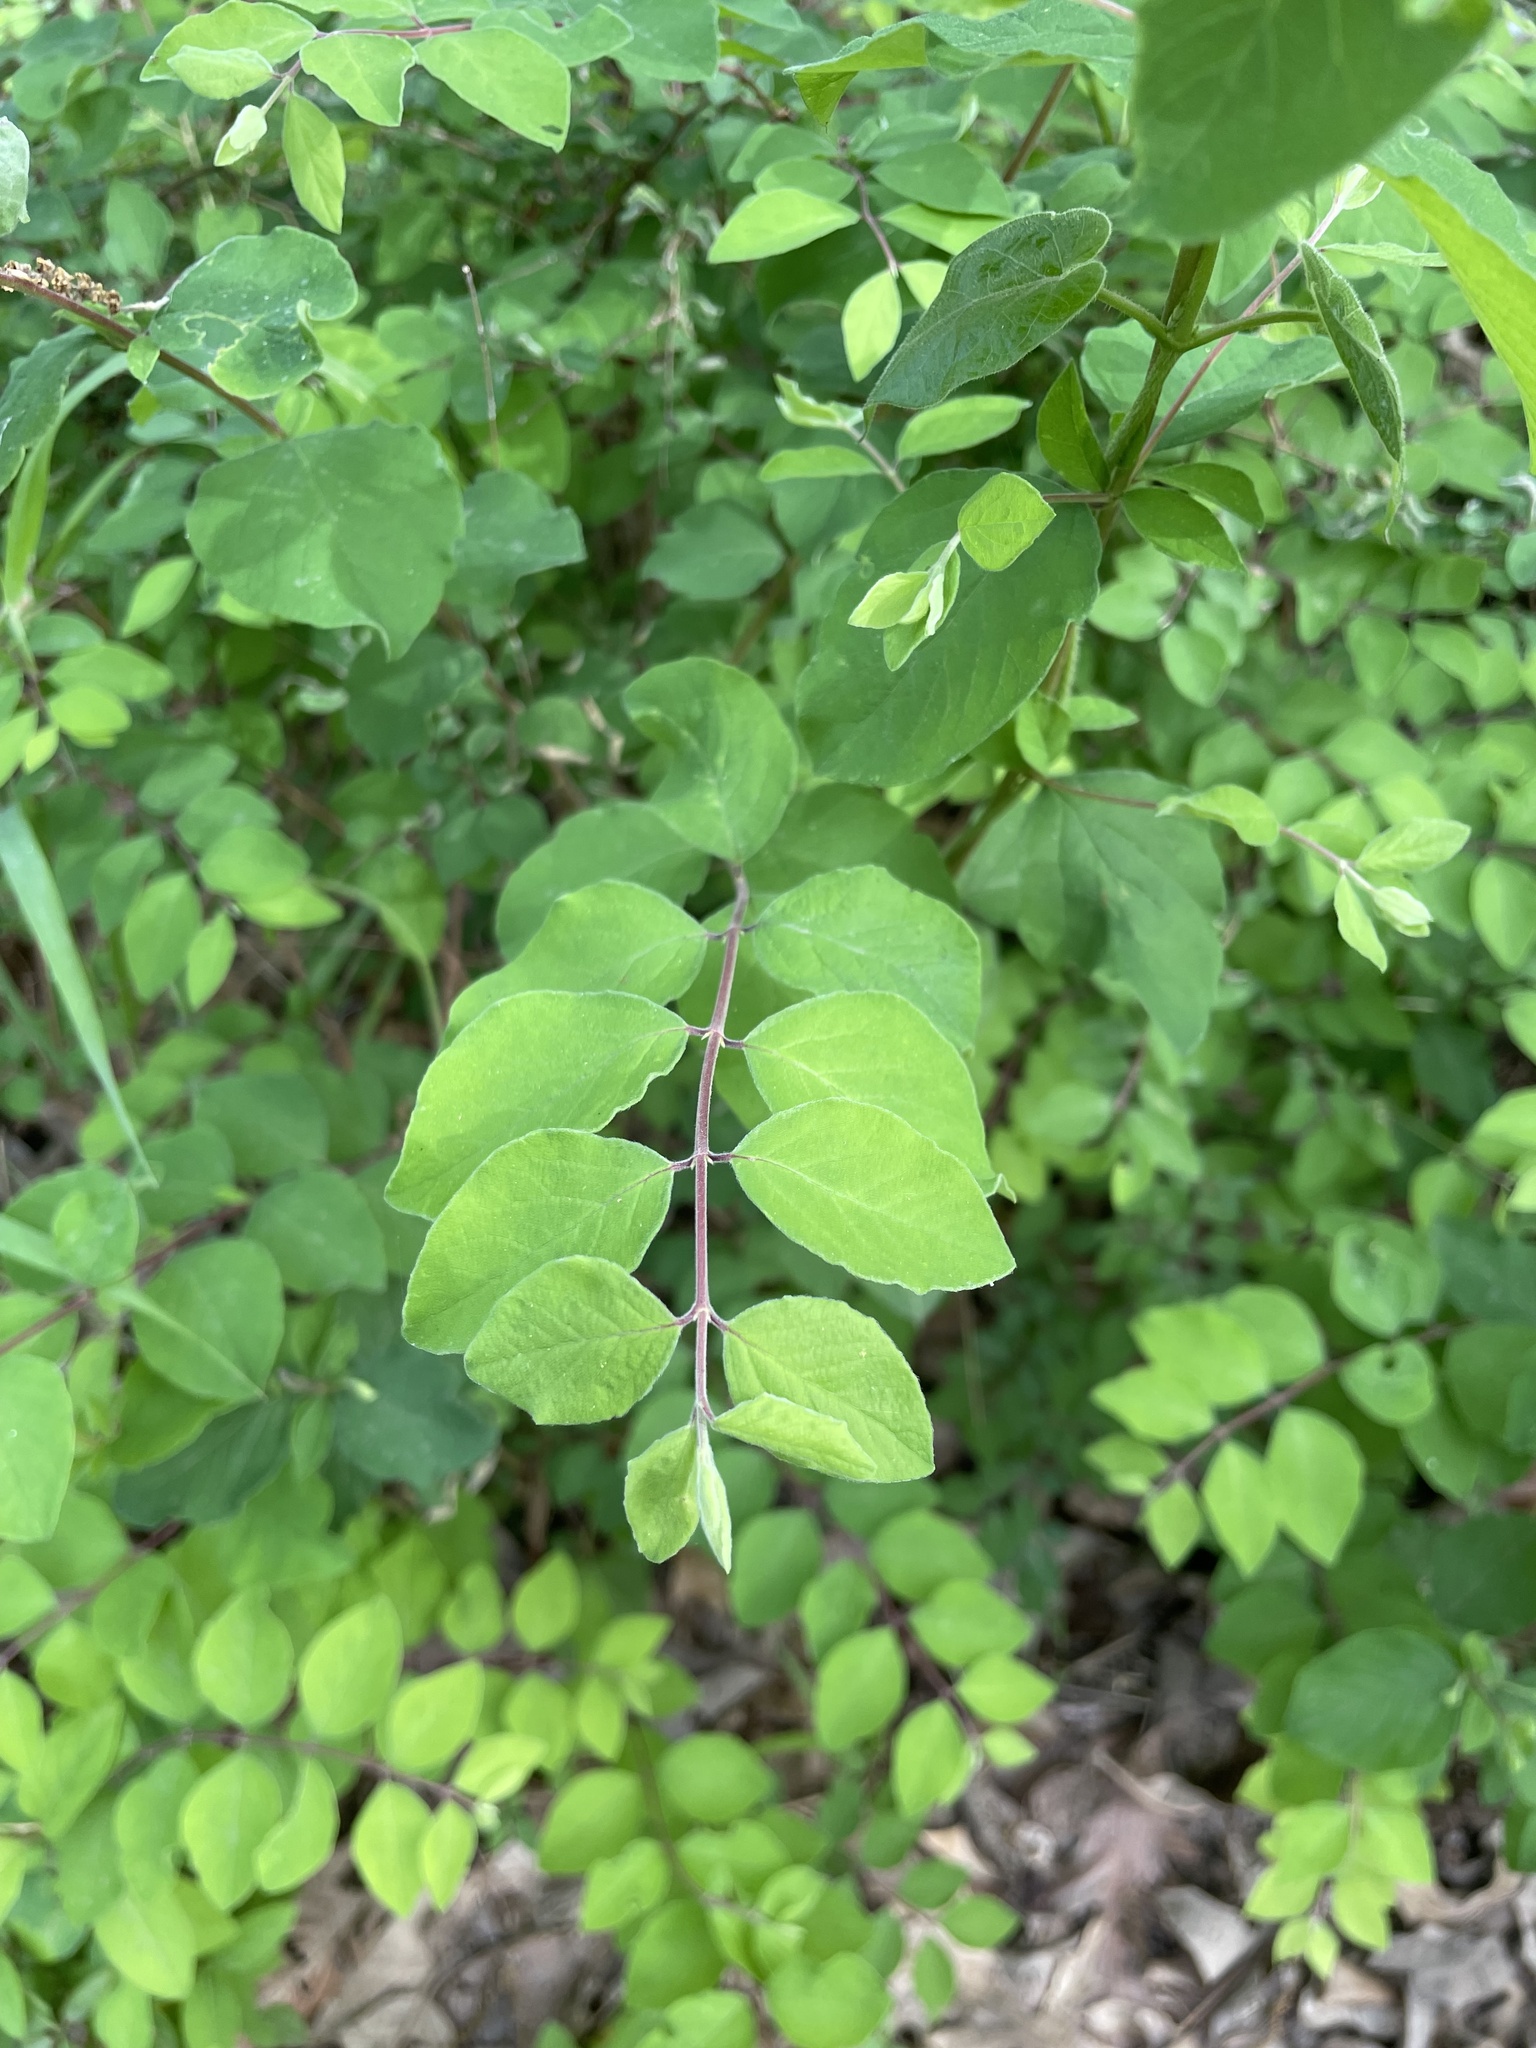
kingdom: Plantae
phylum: Tracheophyta
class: Magnoliopsida
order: Dipsacales
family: Caprifoliaceae
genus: Symphoricarpos
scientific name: Symphoricarpos orbiculatus
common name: Coralberry
